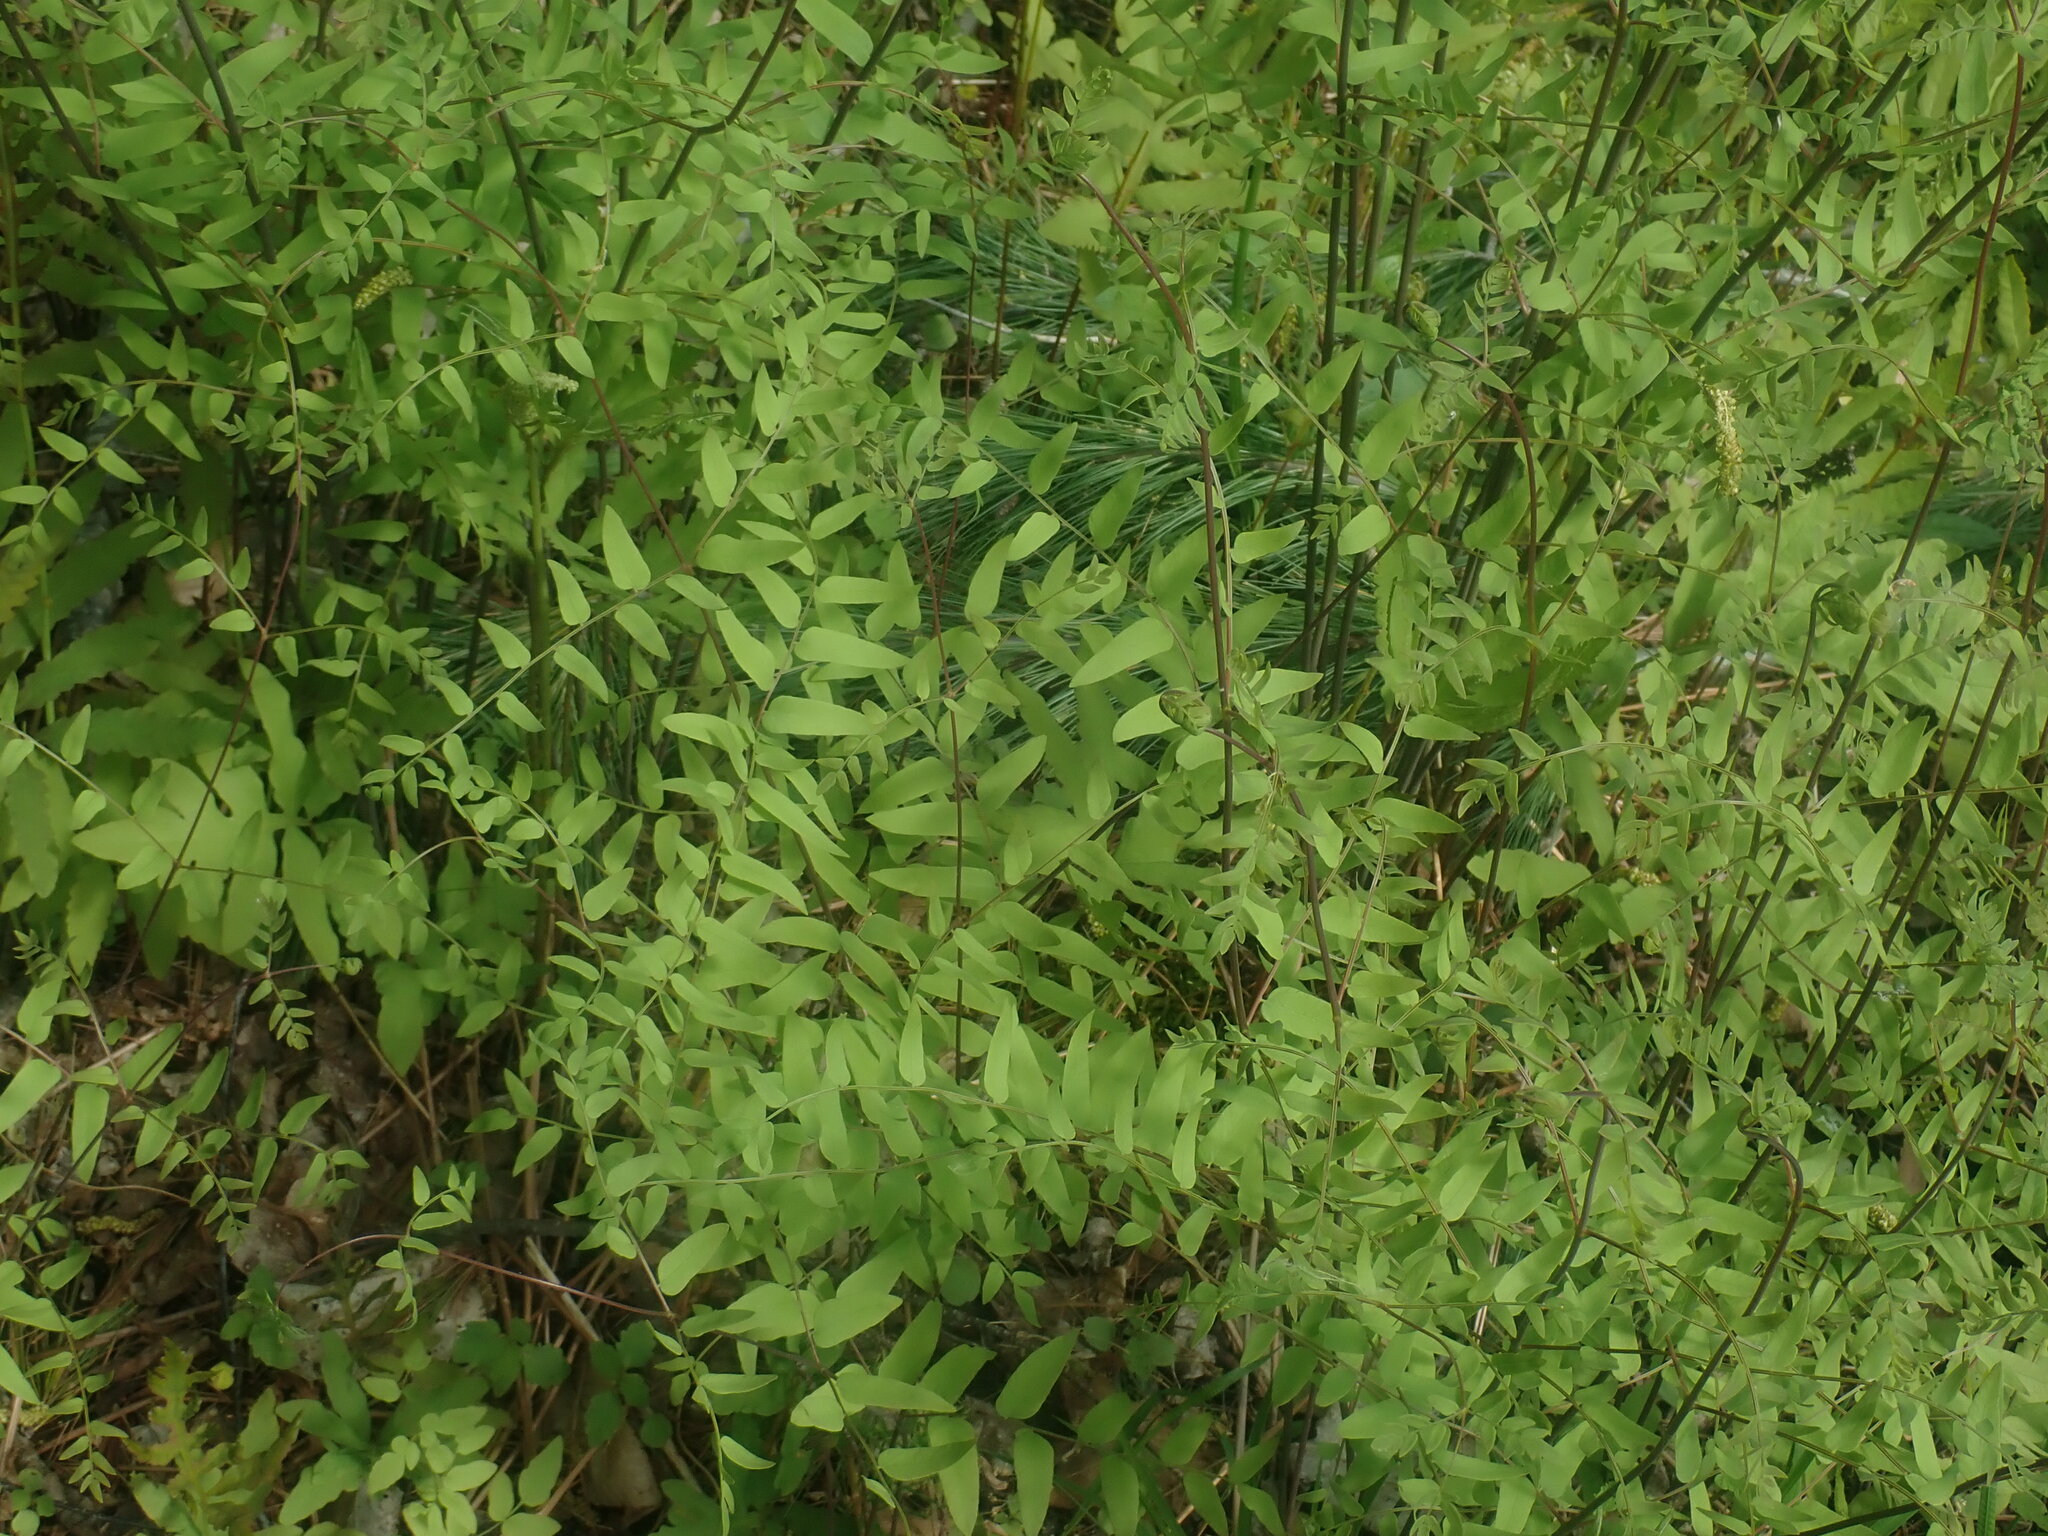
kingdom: Plantae
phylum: Tracheophyta
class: Polypodiopsida
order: Osmundales
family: Osmundaceae
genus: Osmunda
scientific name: Osmunda spectabilis
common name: American royal fern
